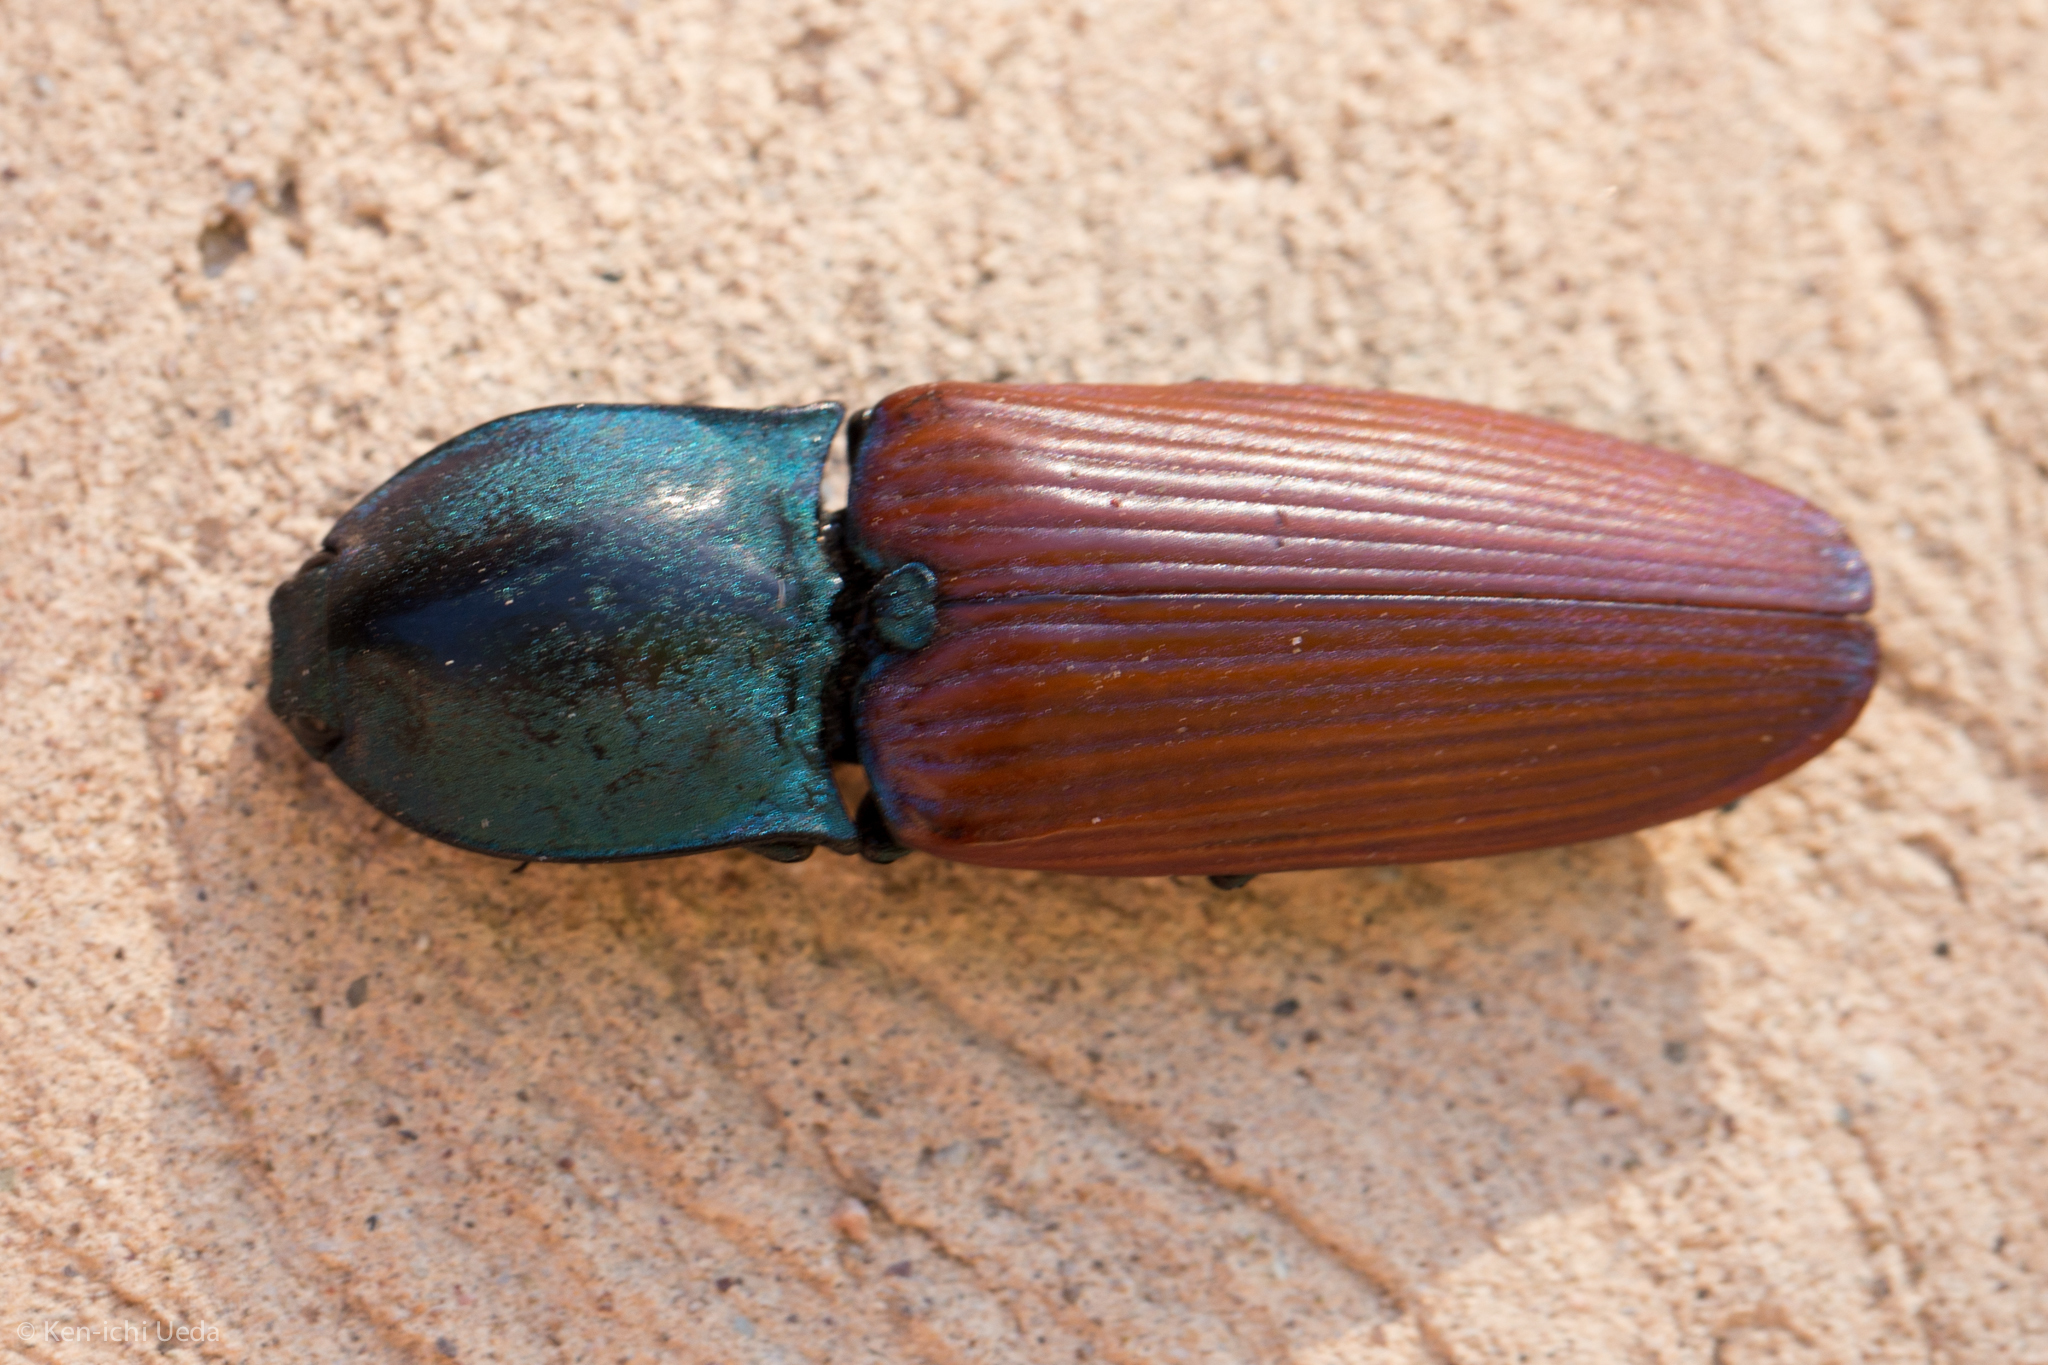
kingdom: Animalia
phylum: Arthropoda
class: Insecta
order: Coleoptera
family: Elateridae
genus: Chalcolepidius
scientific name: Chalcolepidius
